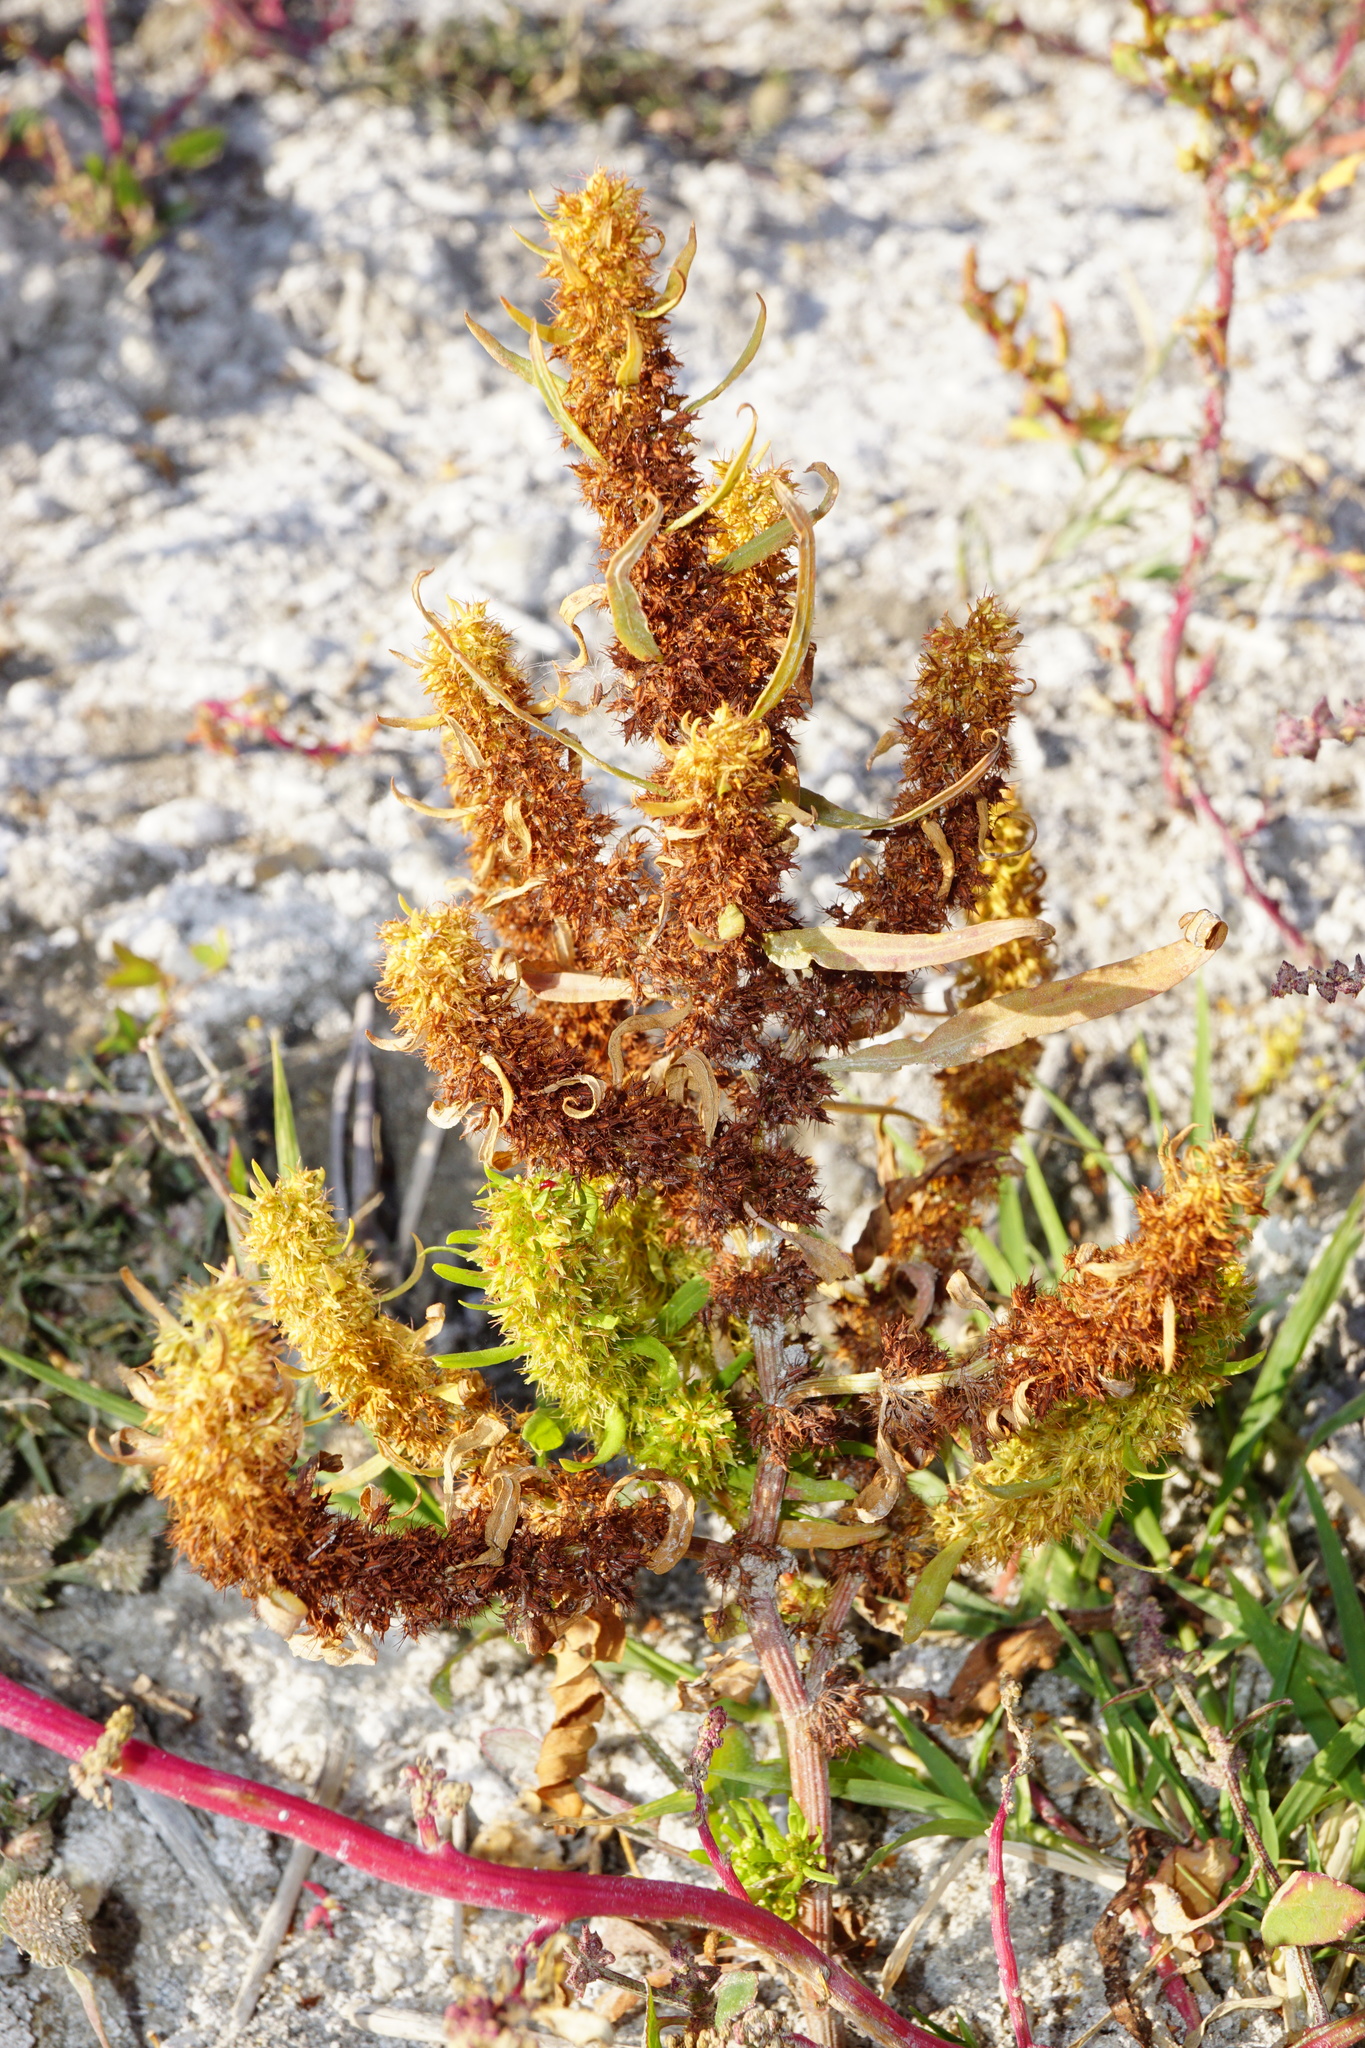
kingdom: Plantae
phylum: Tracheophyta
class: Magnoliopsida
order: Caryophyllales
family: Polygonaceae
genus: Rumex
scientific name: Rumex maritimus
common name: Golden dock
